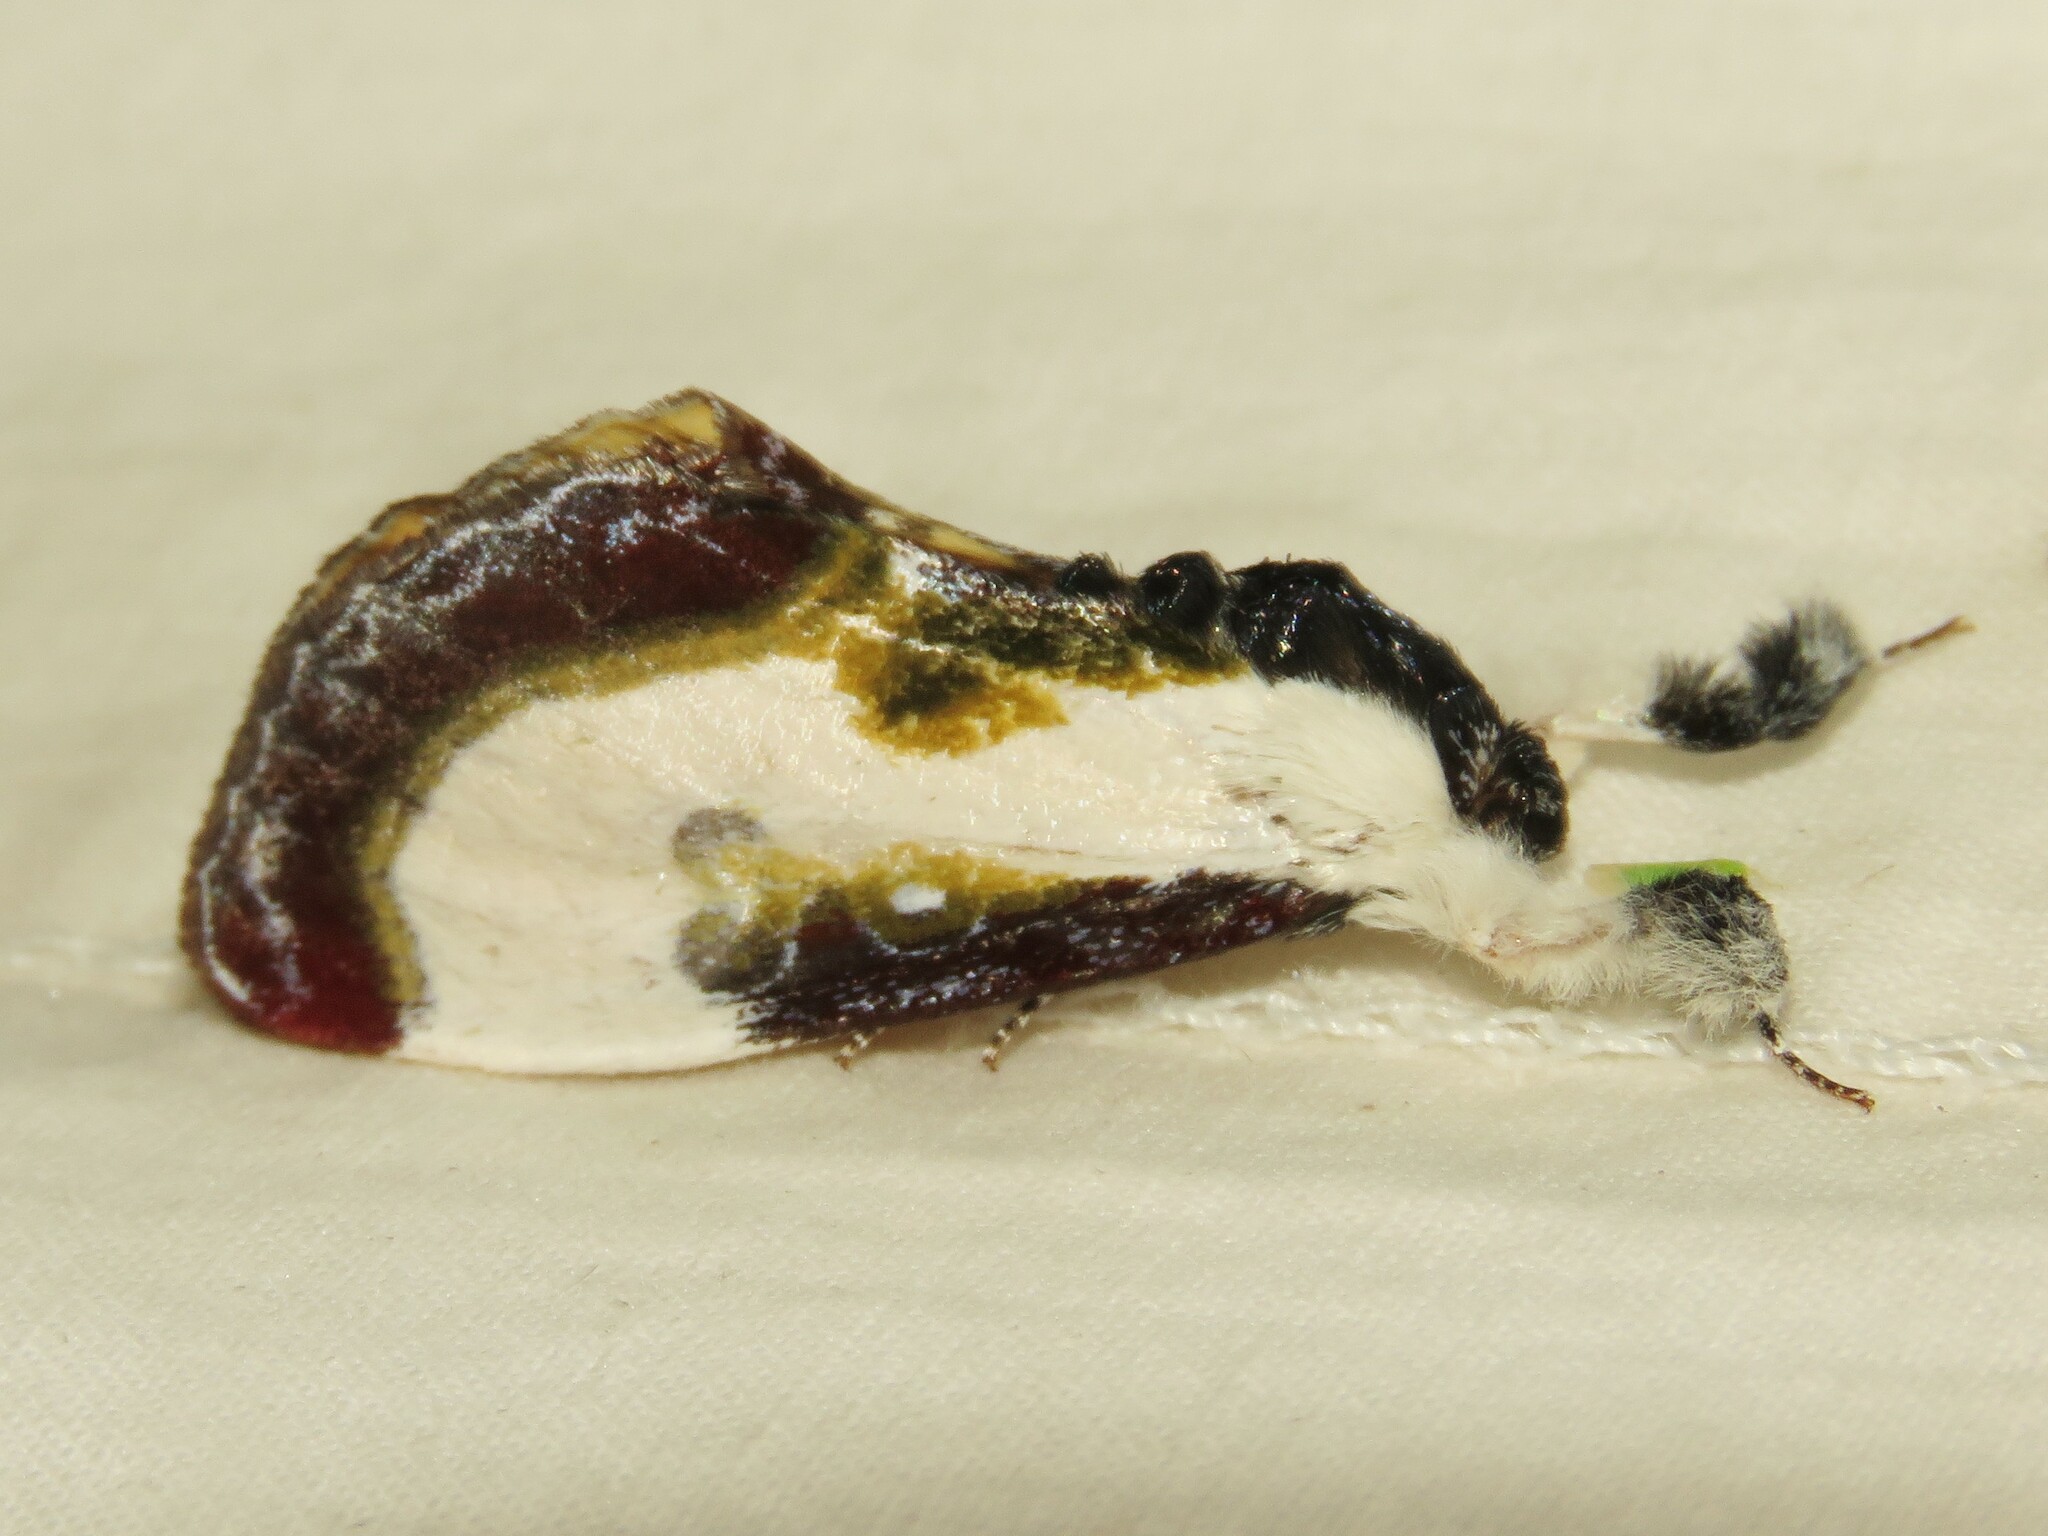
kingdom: Animalia
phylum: Arthropoda
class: Insecta
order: Lepidoptera
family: Noctuidae
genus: Eudryas
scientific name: Eudryas grata
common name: Beautiful wood-nymph
